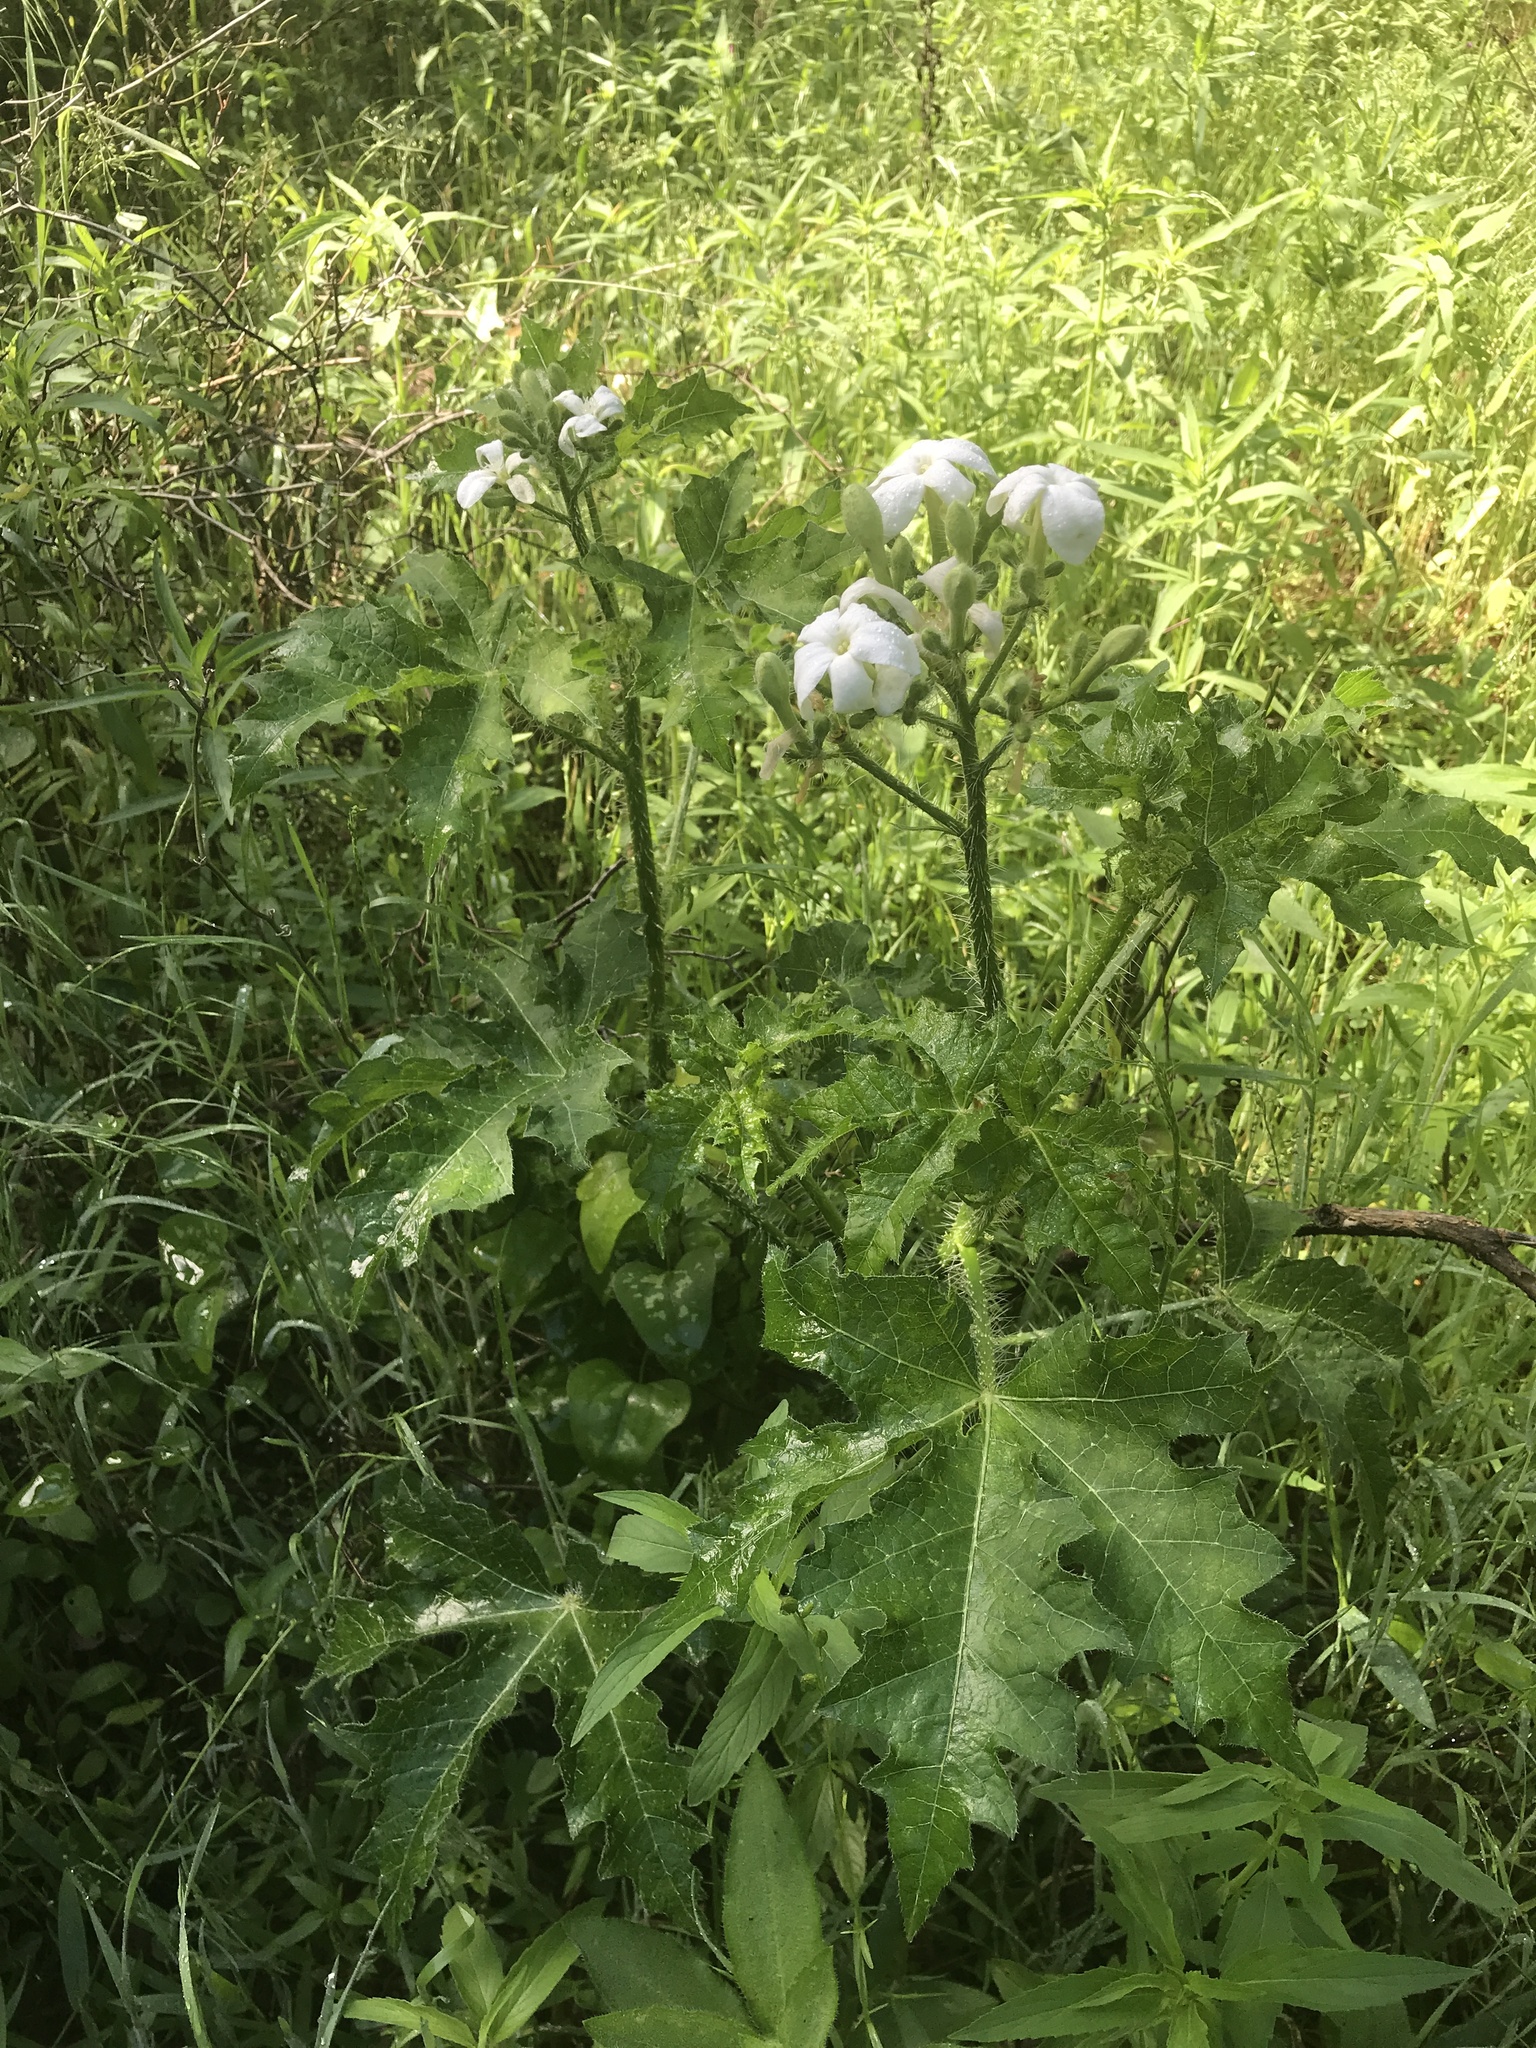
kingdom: Plantae
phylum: Tracheophyta
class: Magnoliopsida
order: Malpighiales
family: Euphorbiaceae
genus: Cnidoscolus
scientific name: Cnidoscolus texanus
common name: Texas bull-nettle
